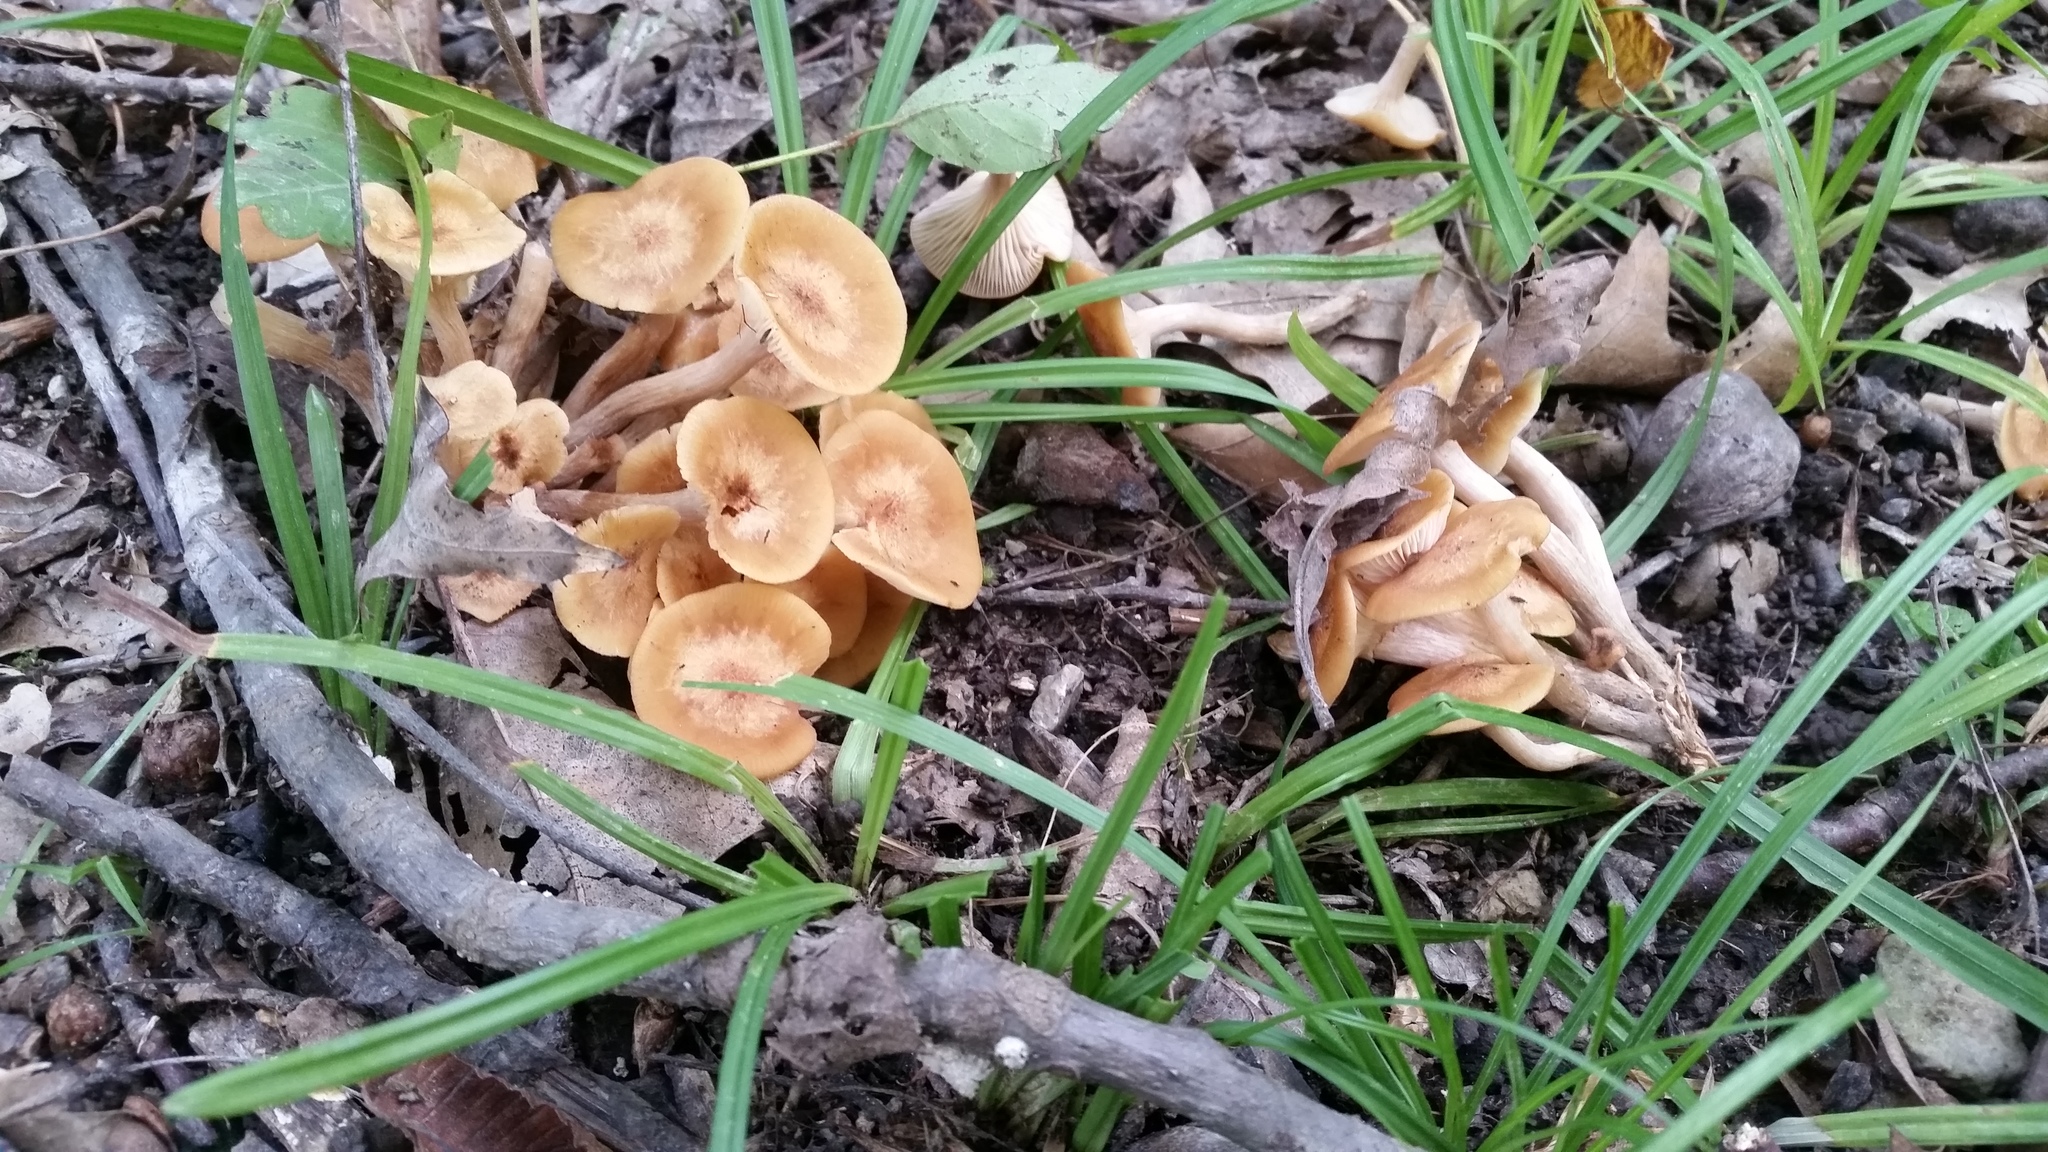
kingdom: Fungi
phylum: Basidiomycota
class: Agaricomycetes
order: Agaricales
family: Physalacriaceae
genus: Desarmillaria
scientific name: Desarmillaria caespitosa
